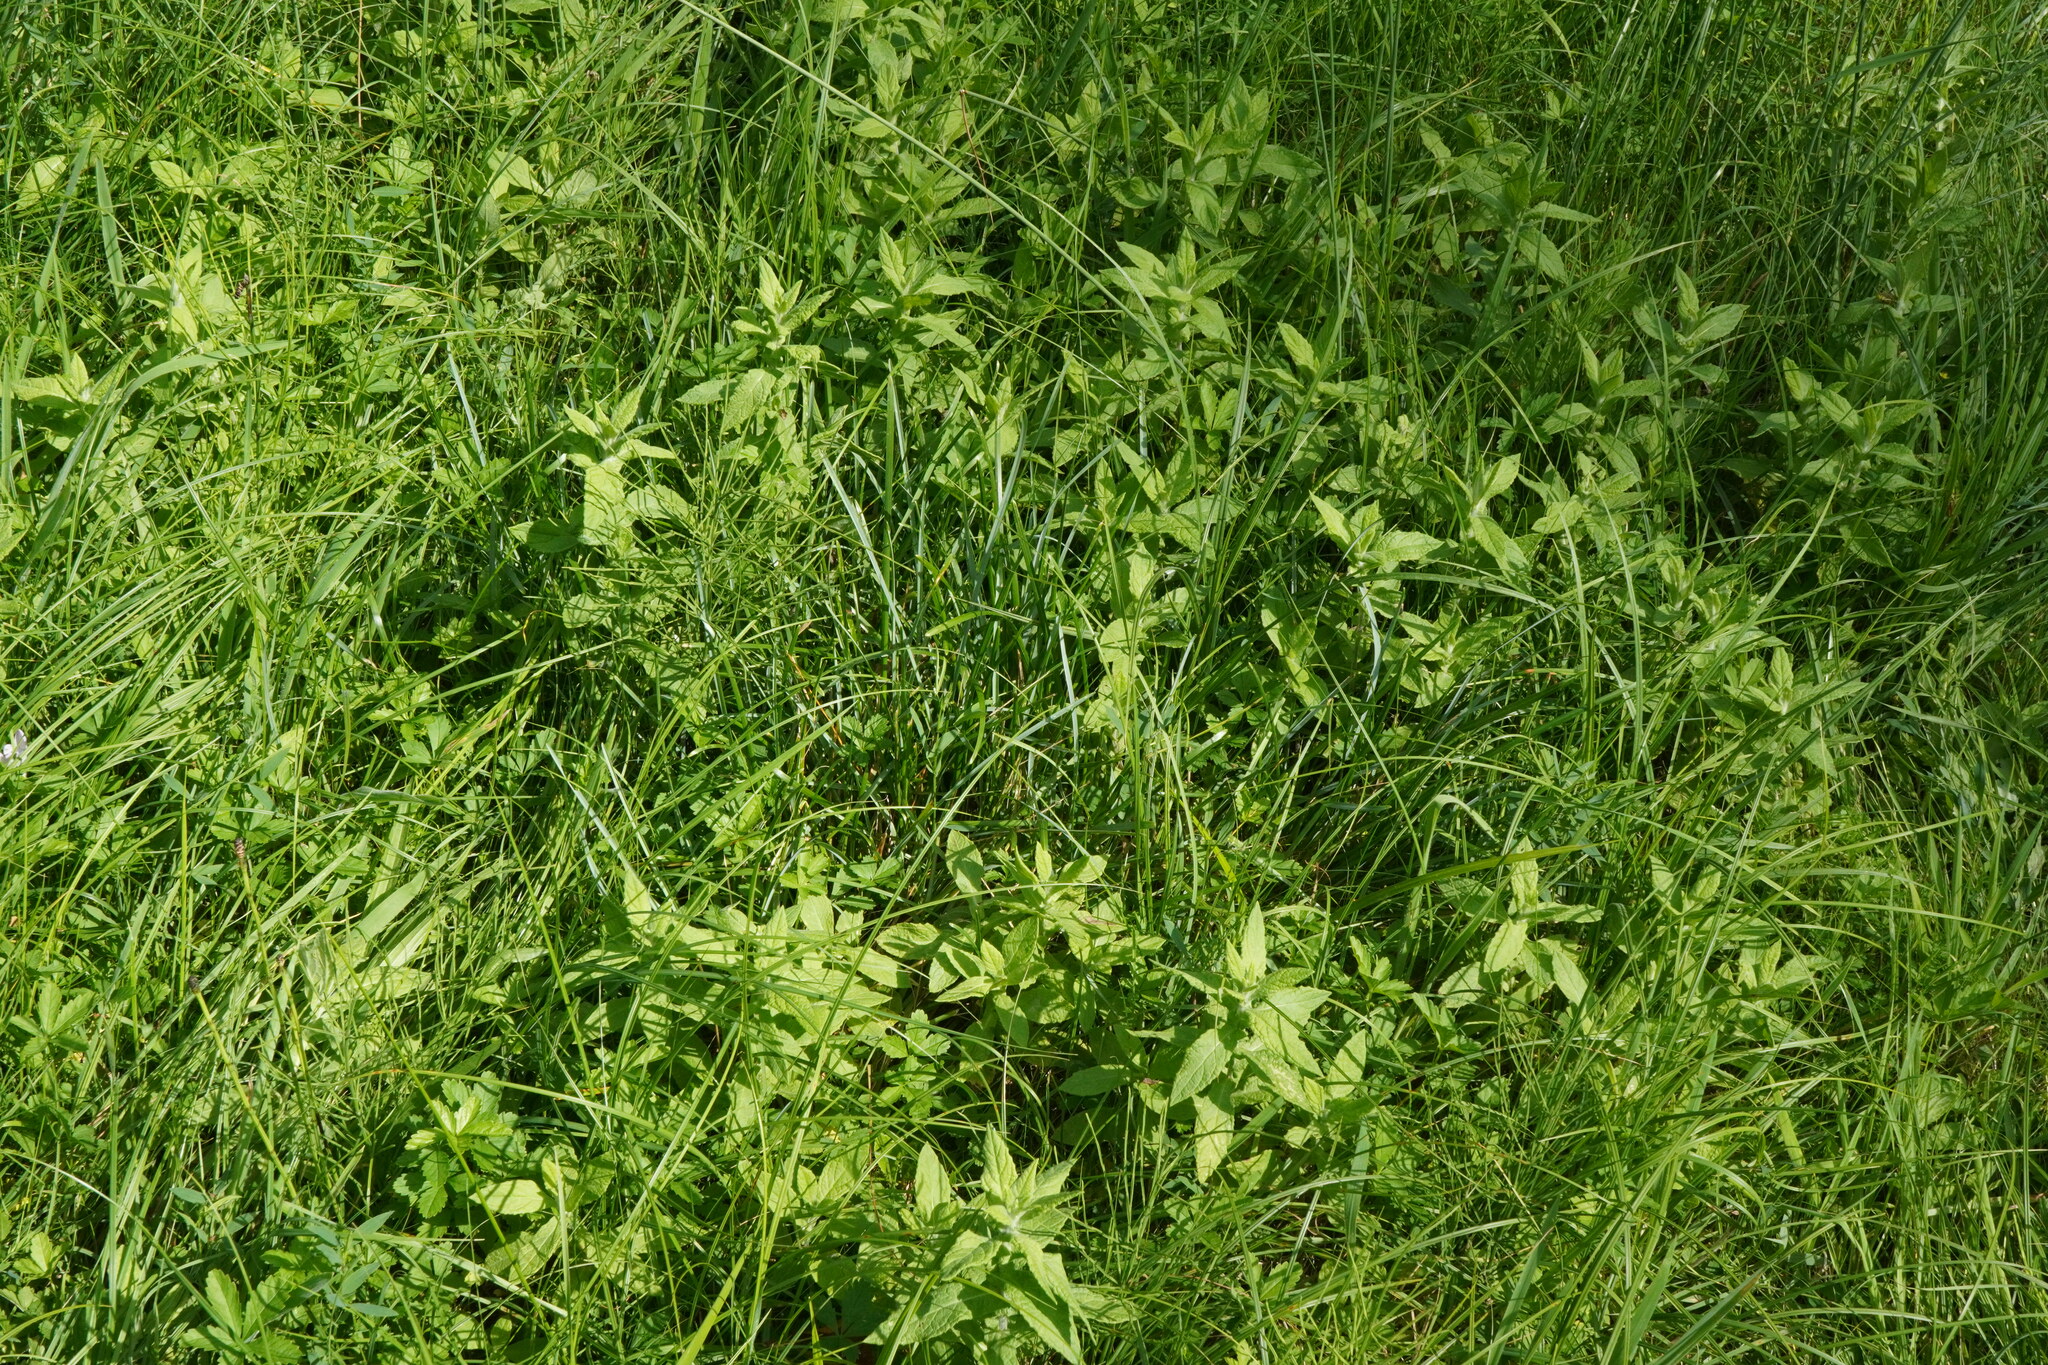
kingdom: Plantae
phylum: Tracheophyta
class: Liliopsida
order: Poales
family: Poaceae
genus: Sesleria
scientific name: Sesleria uliginosa
